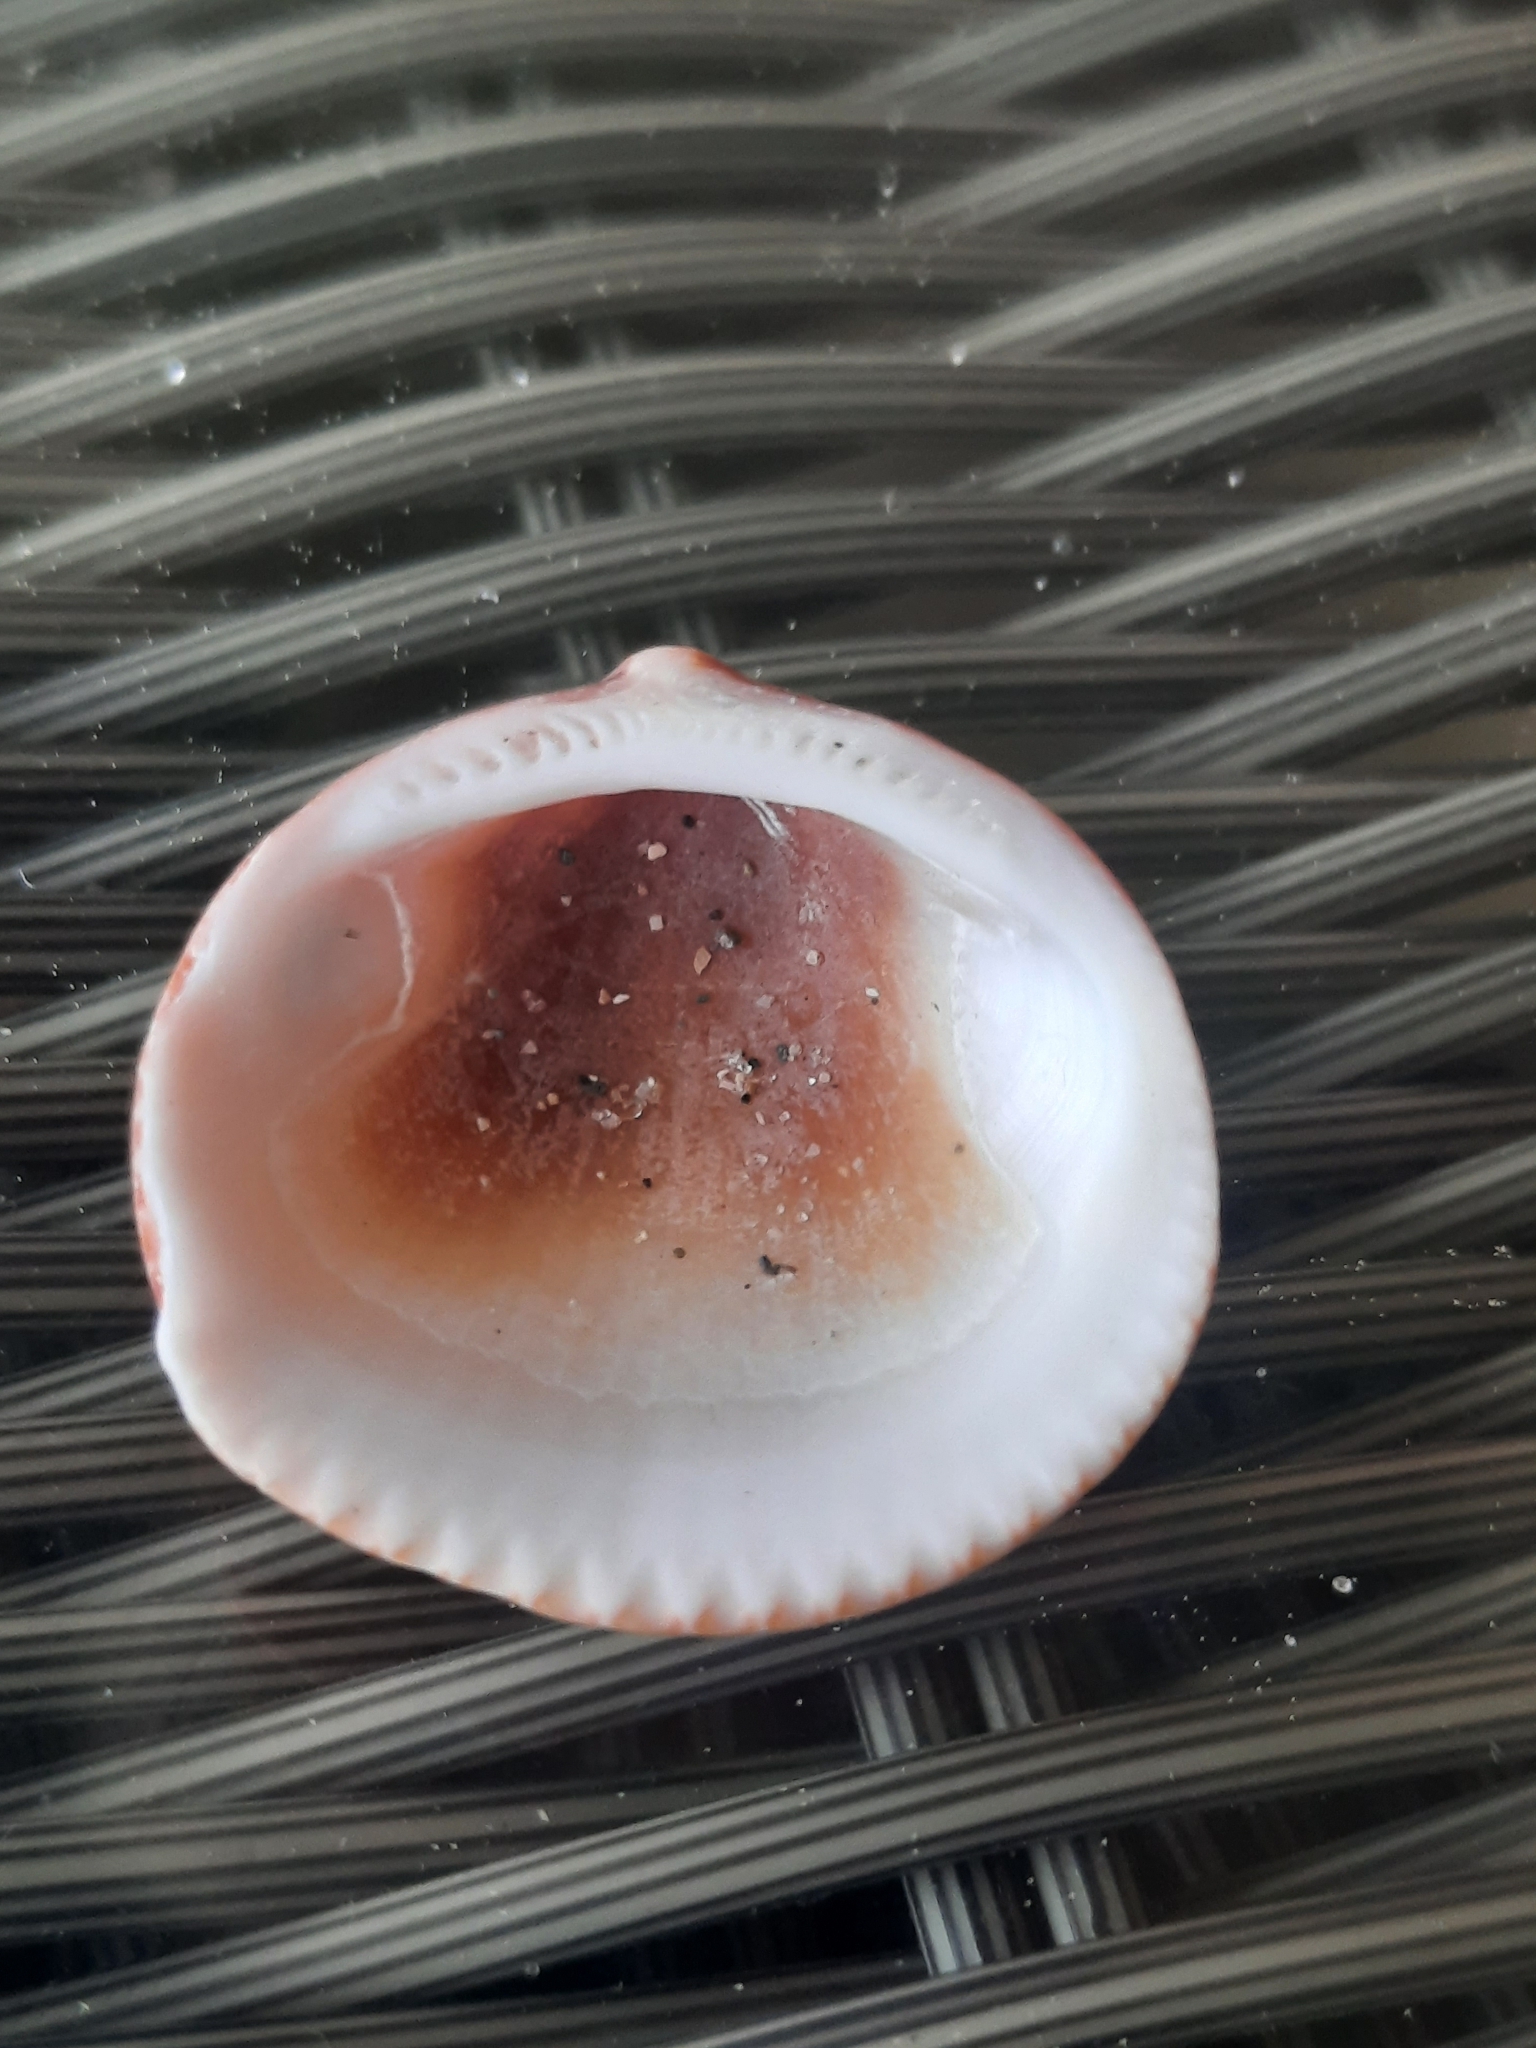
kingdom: Animalia
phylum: Mollusca
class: Bivalvia
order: Arcida
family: Glycymerididae
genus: Glycymeris
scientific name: Glycymeris spectralis
